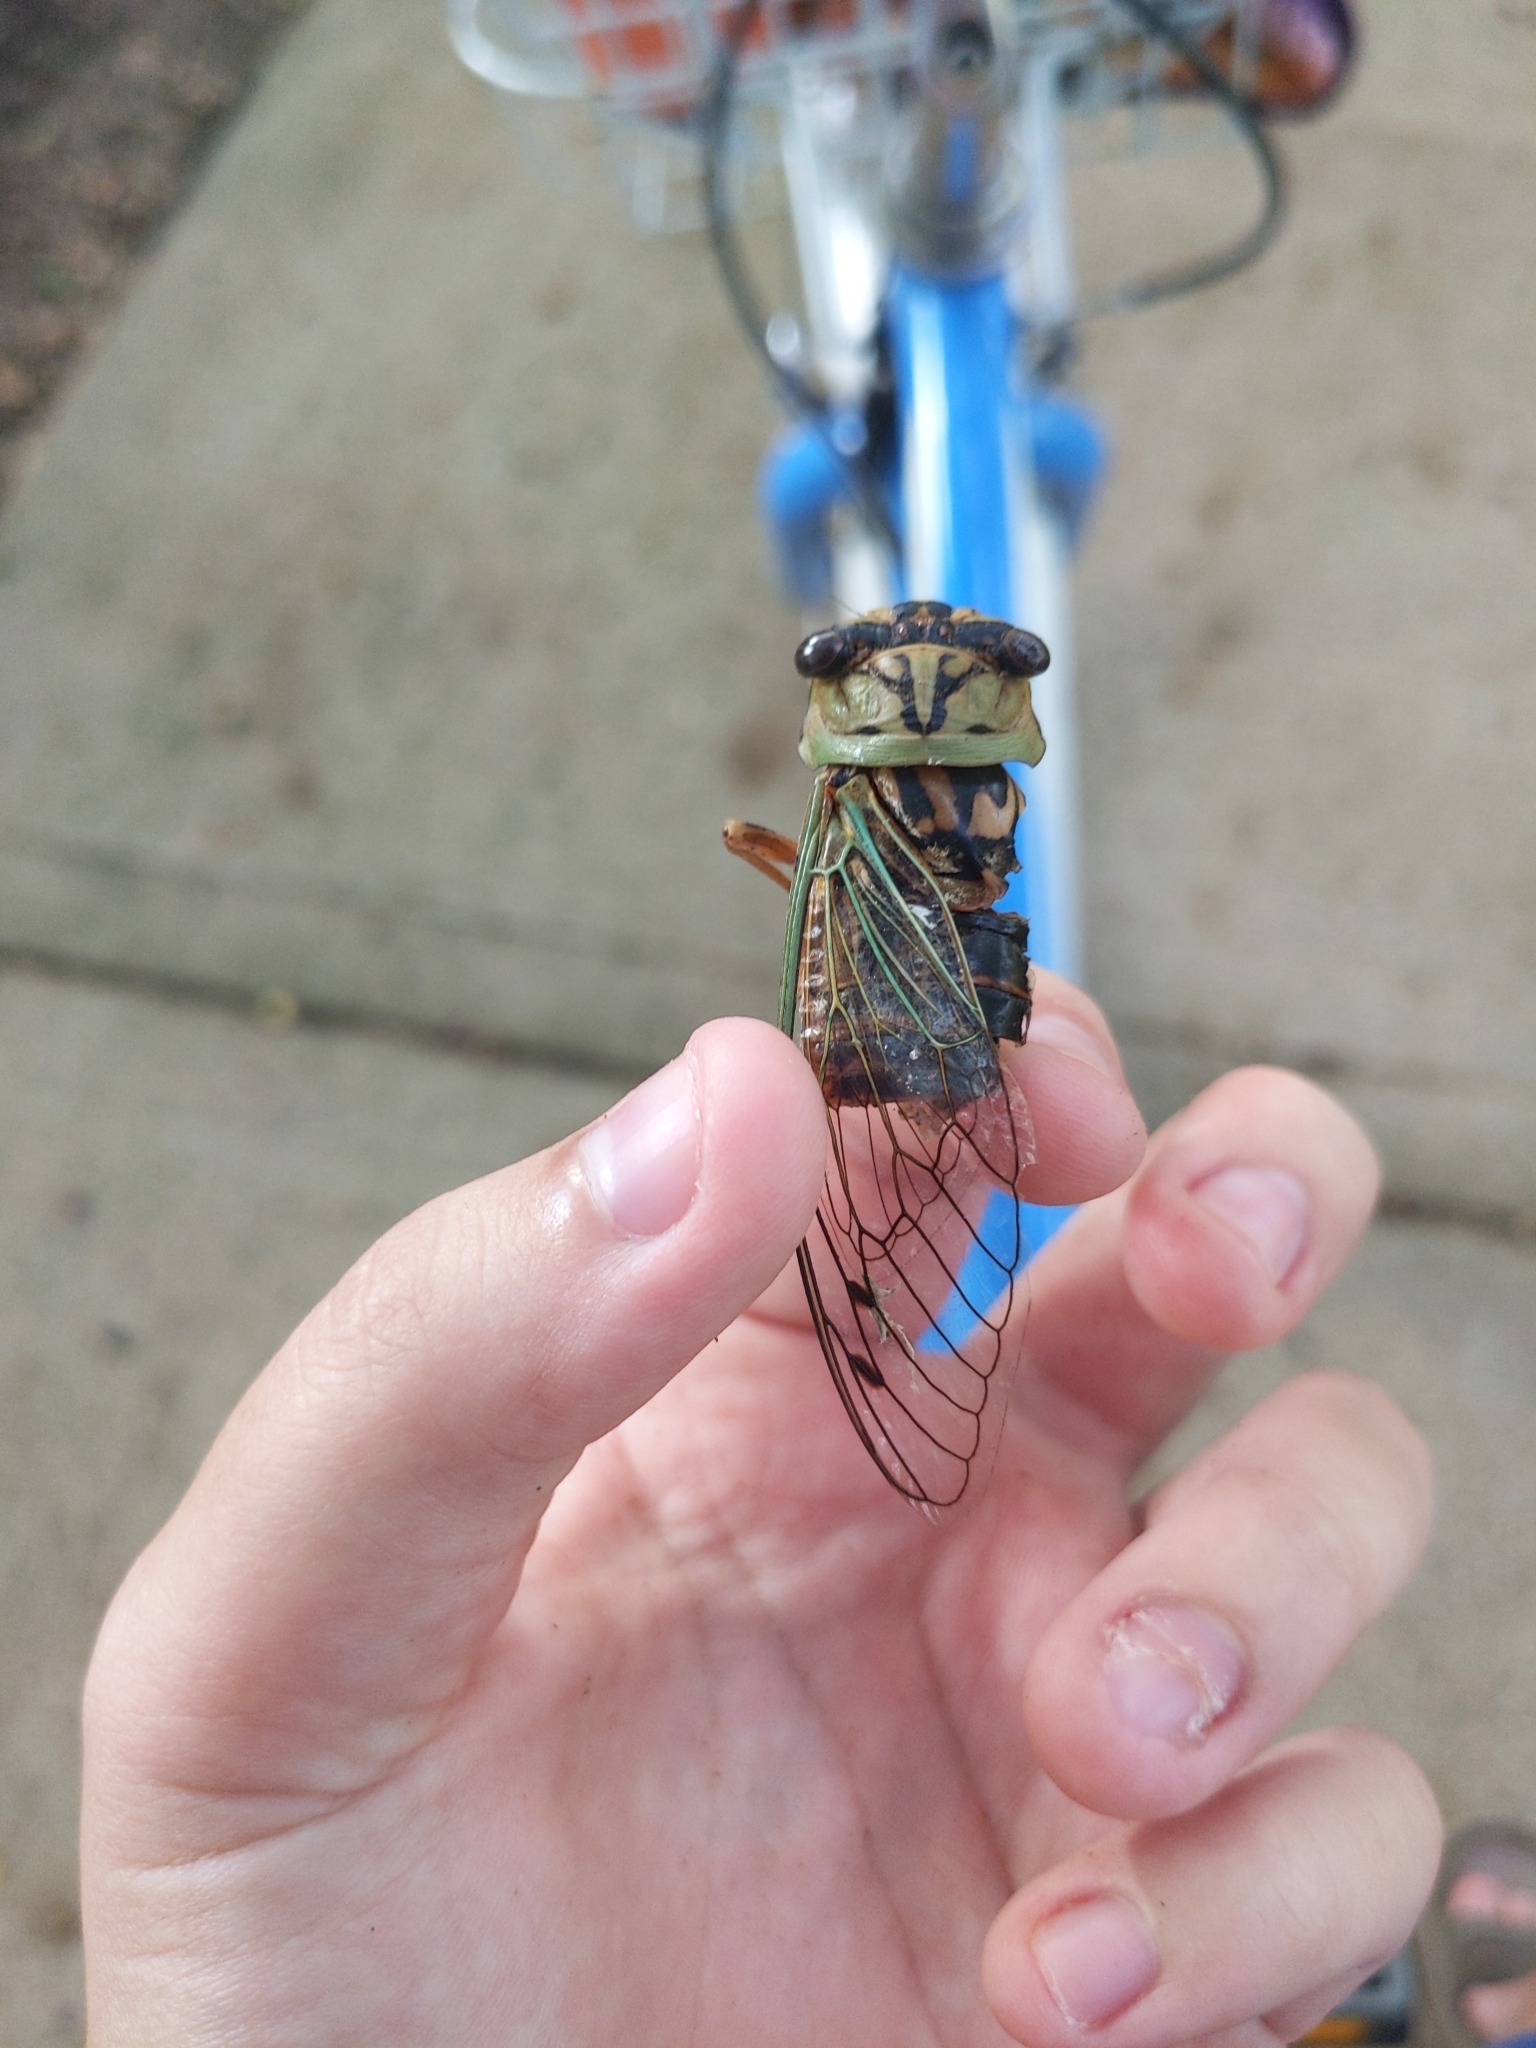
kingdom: Animalia
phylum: Arthropoda
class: Insecta
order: Hemiptera
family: Cicadidae
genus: Megatibicen
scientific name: Megatibicen resh
